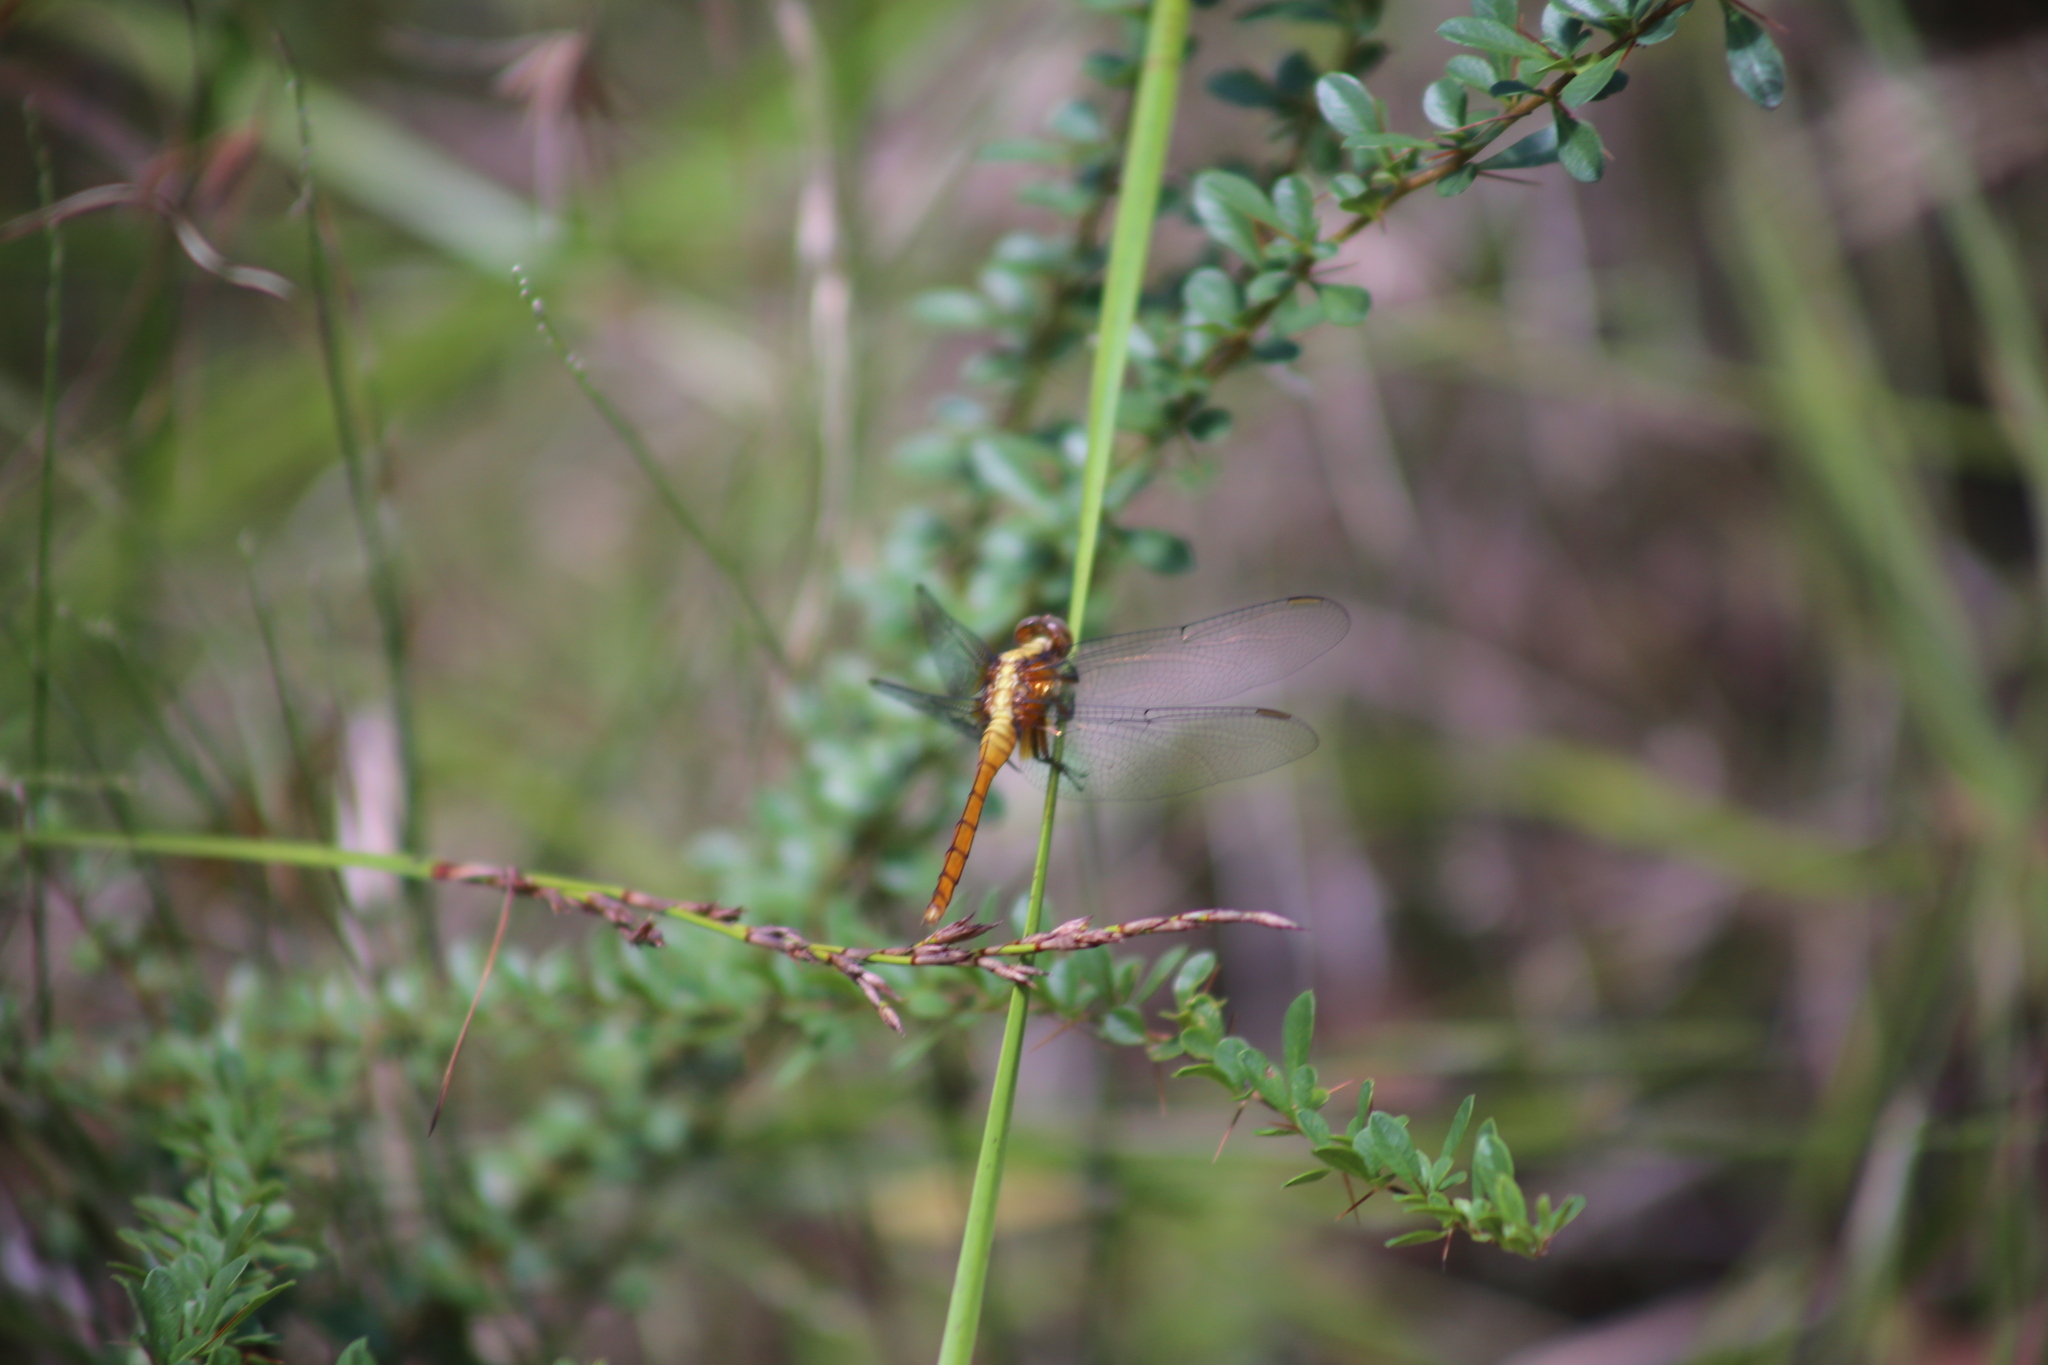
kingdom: Animalia
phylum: Arthropoda
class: Insecta
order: Odonata
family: Libellulidae
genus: Orthetrum
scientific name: Orthetrum villosovittatum
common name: Firery skimmer
